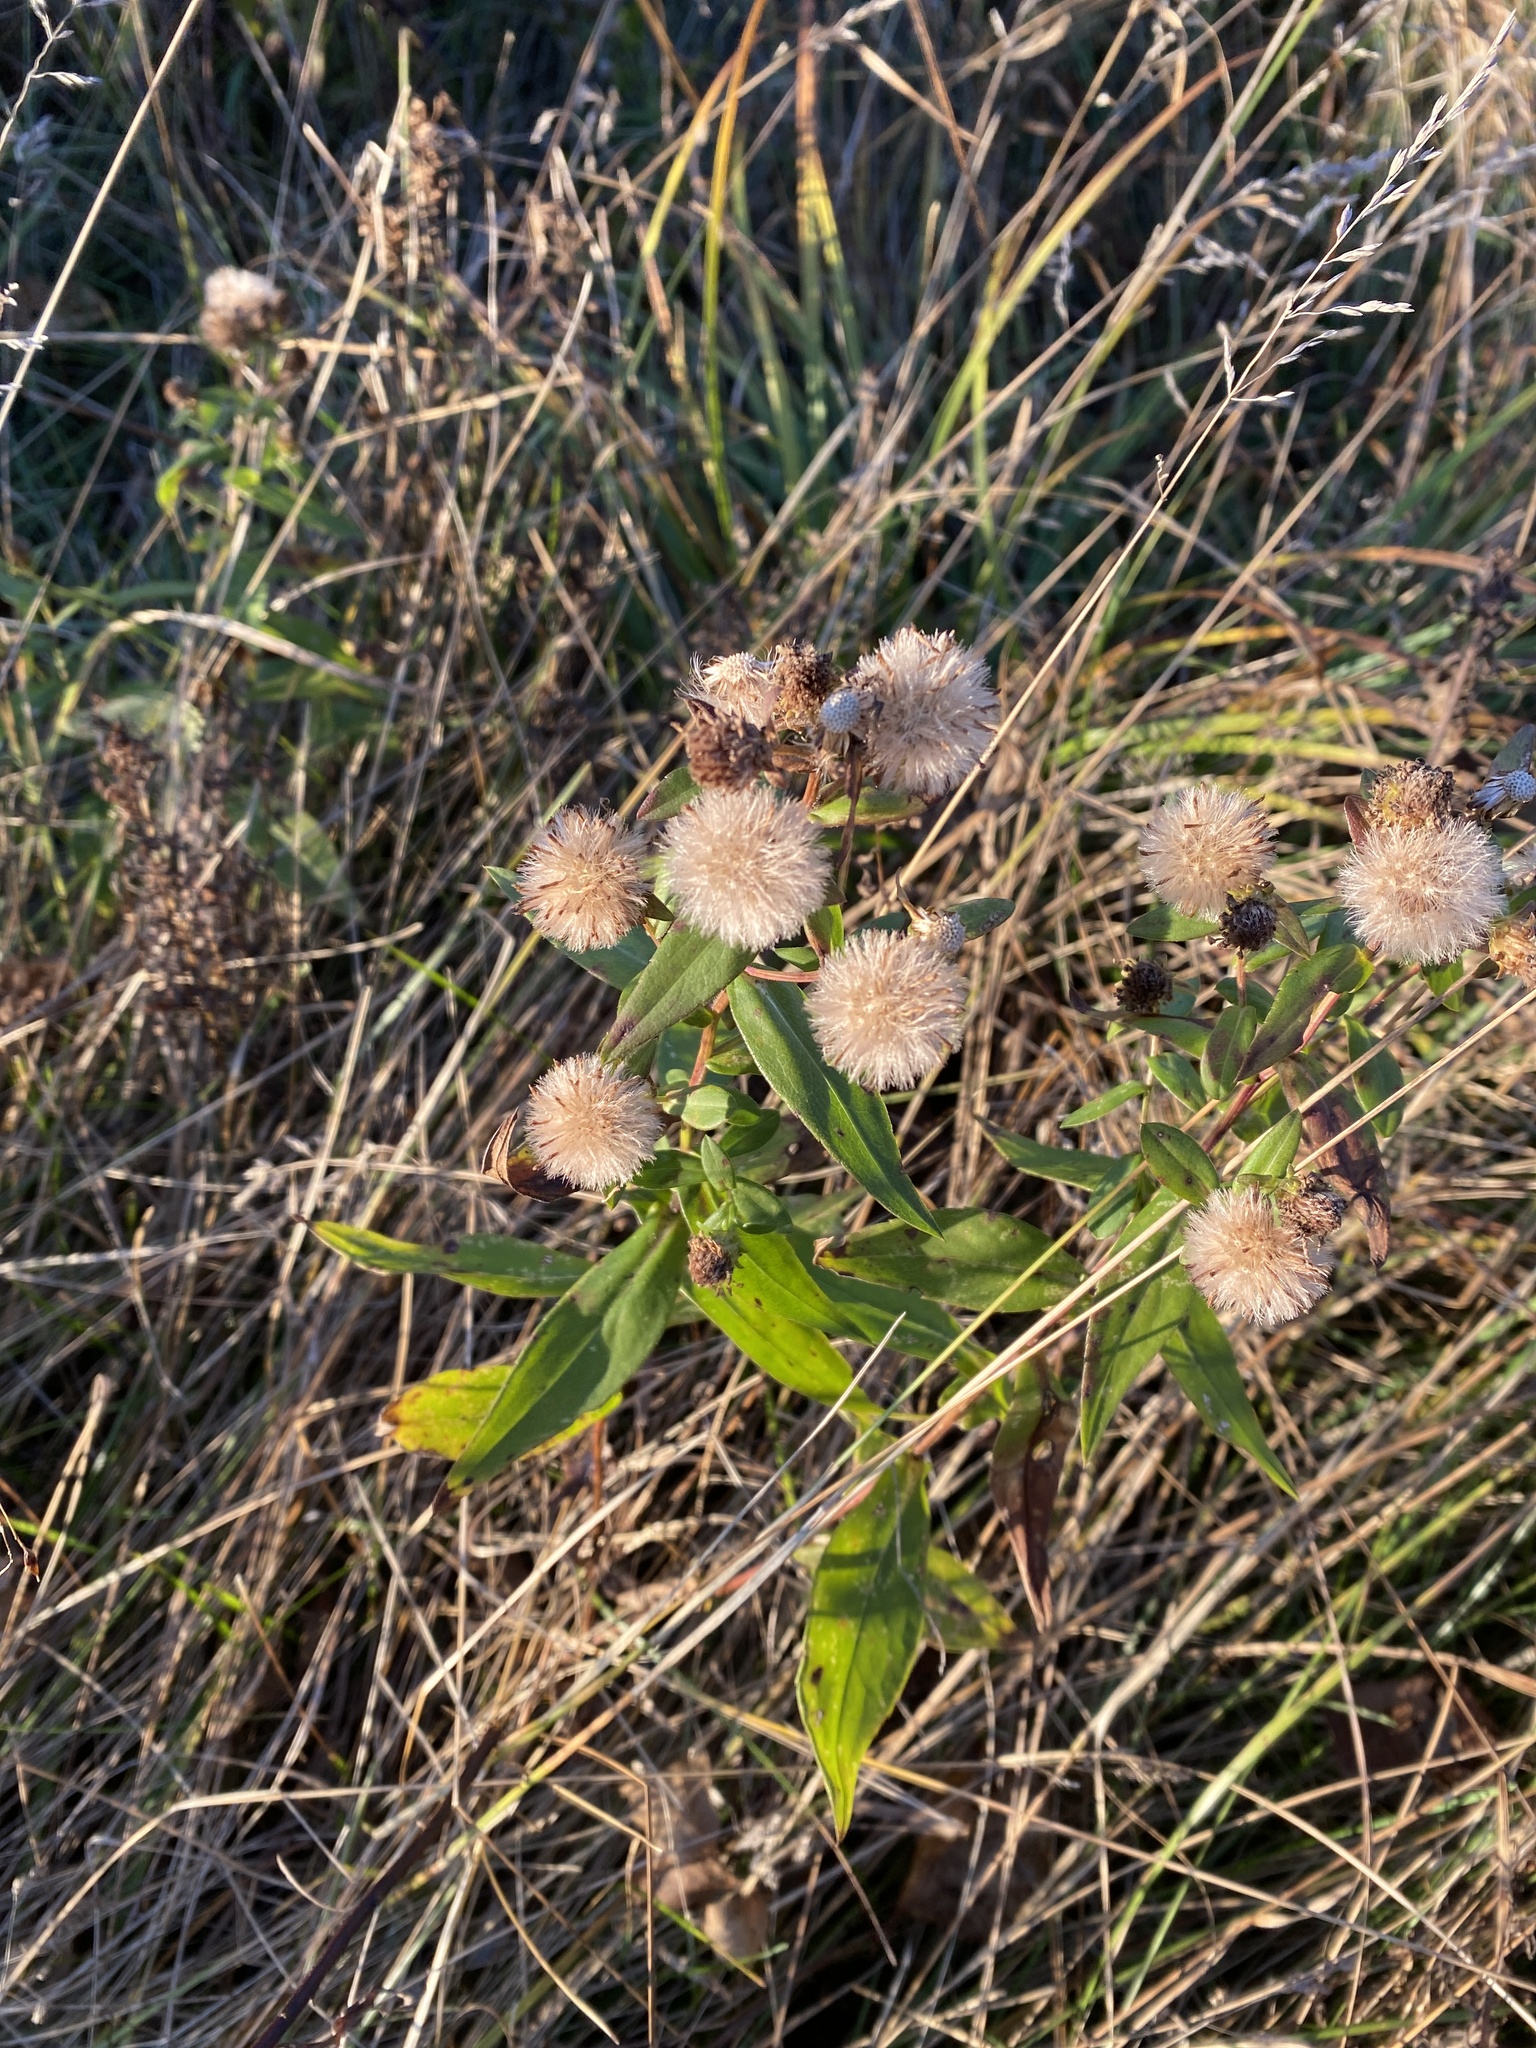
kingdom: Plantae
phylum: Tracheophyta
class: Magnoliopsida
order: Asterales
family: Asteraceae
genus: Symphyotrichum
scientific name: Symphyotrichum novi-belgii
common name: Michaelmas daisy
